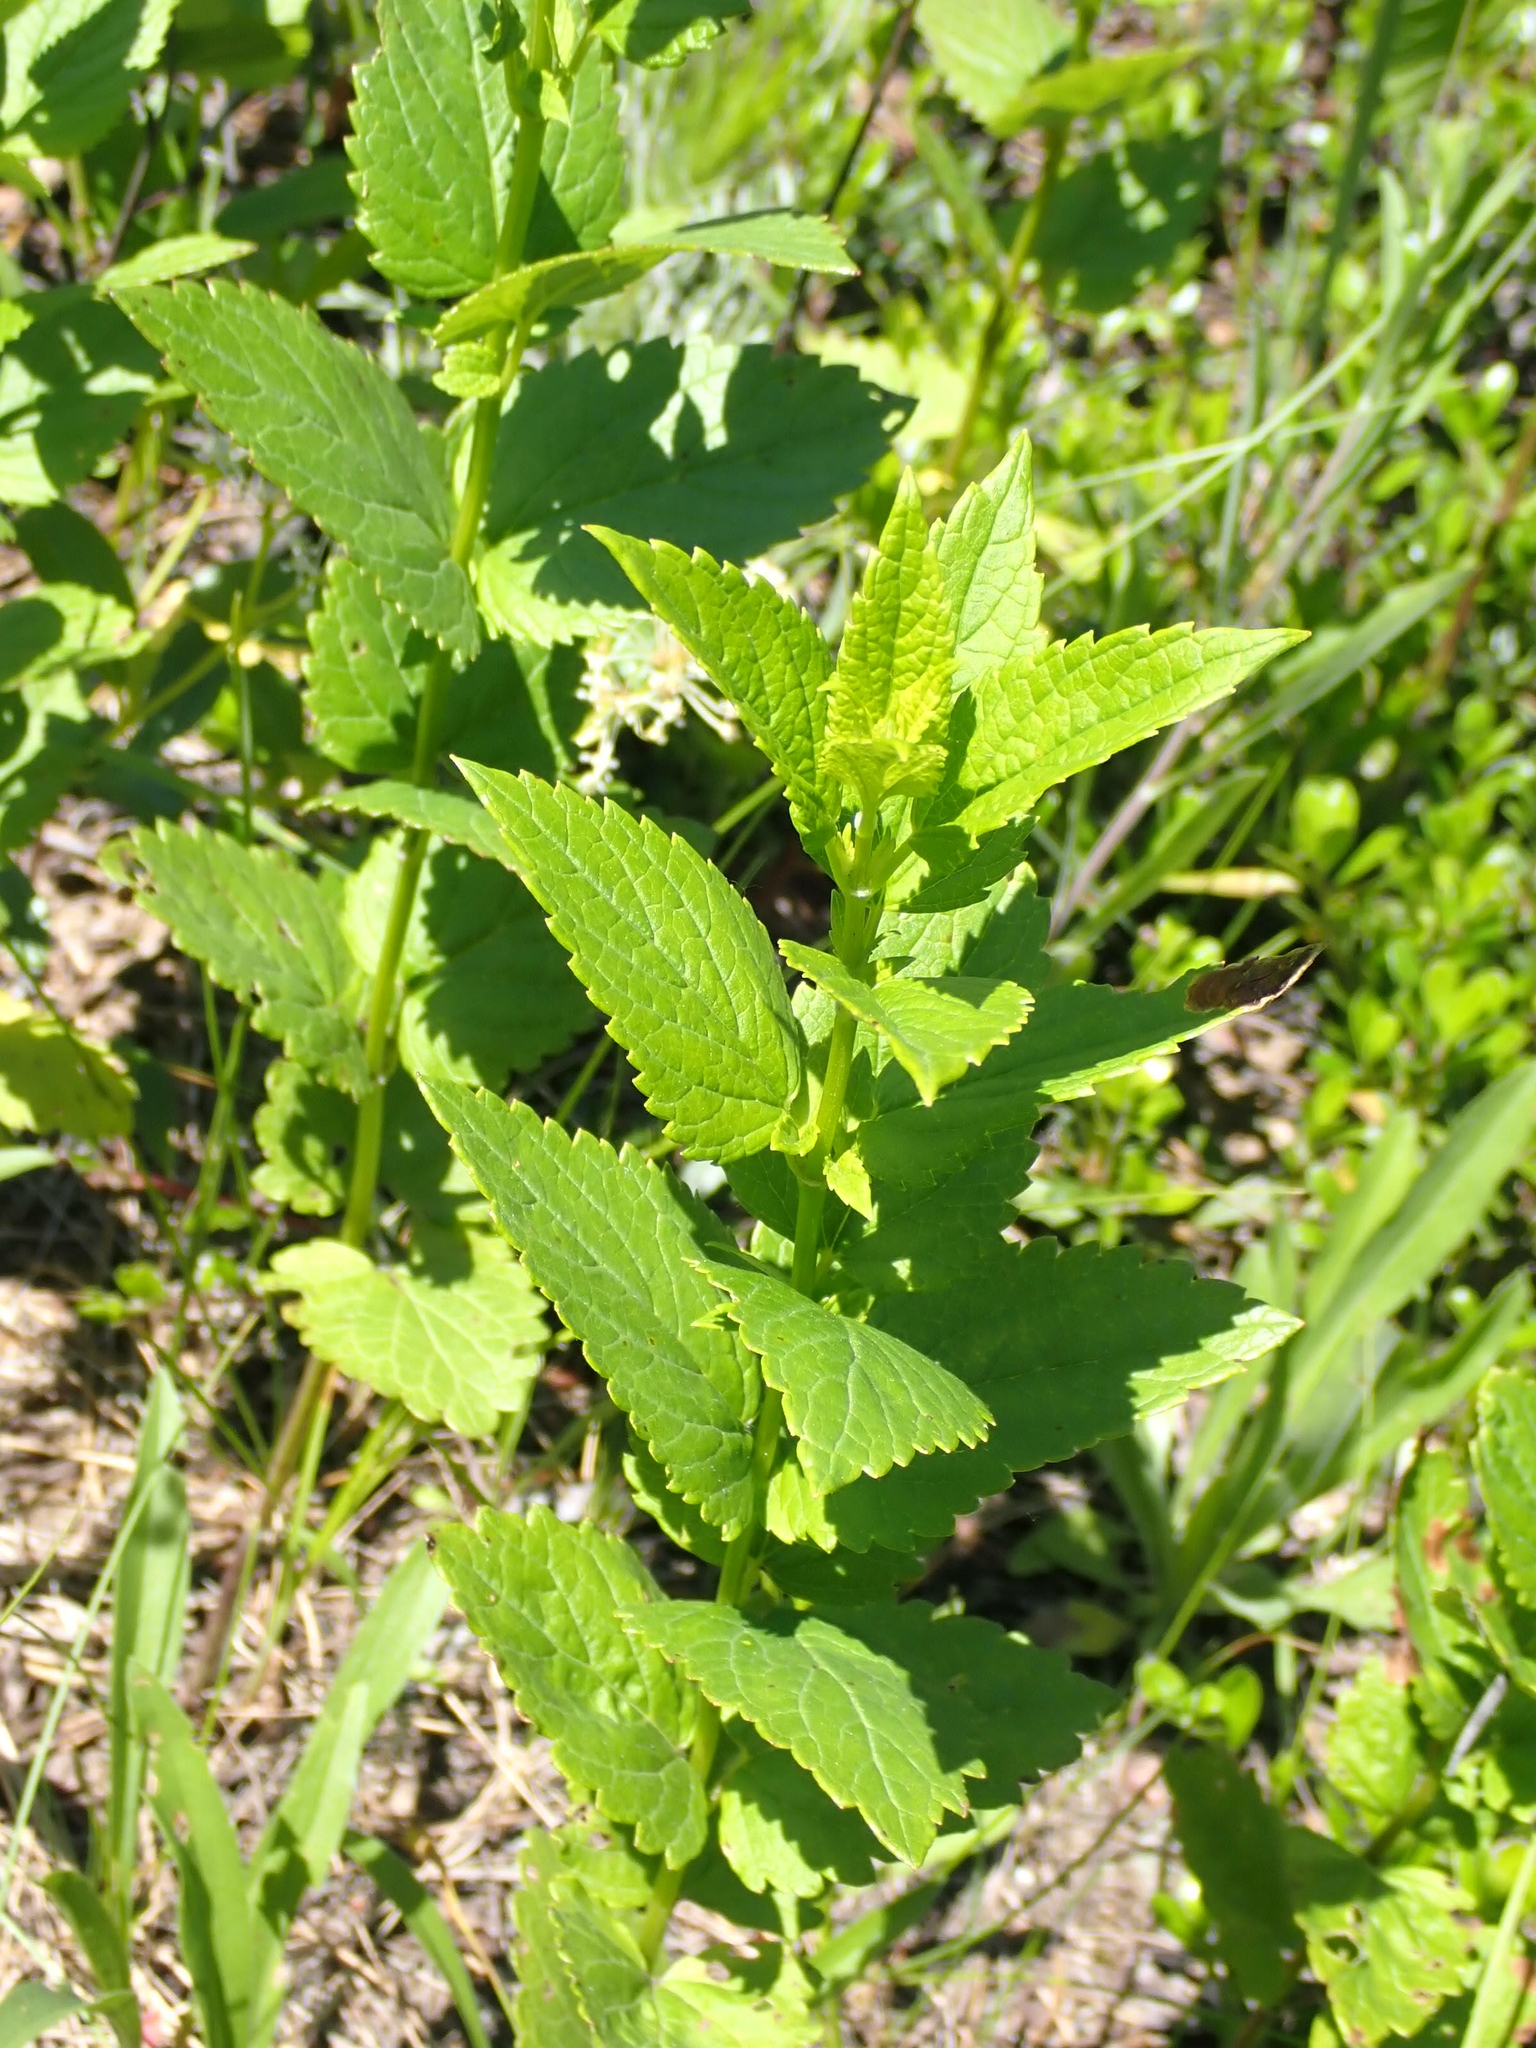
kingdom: Plantae
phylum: Tracheophyta
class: Magnoliopsida
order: Lamiales
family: Lamiaceae
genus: Agastache
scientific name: Agastache foeniculum
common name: Anise hyssop
